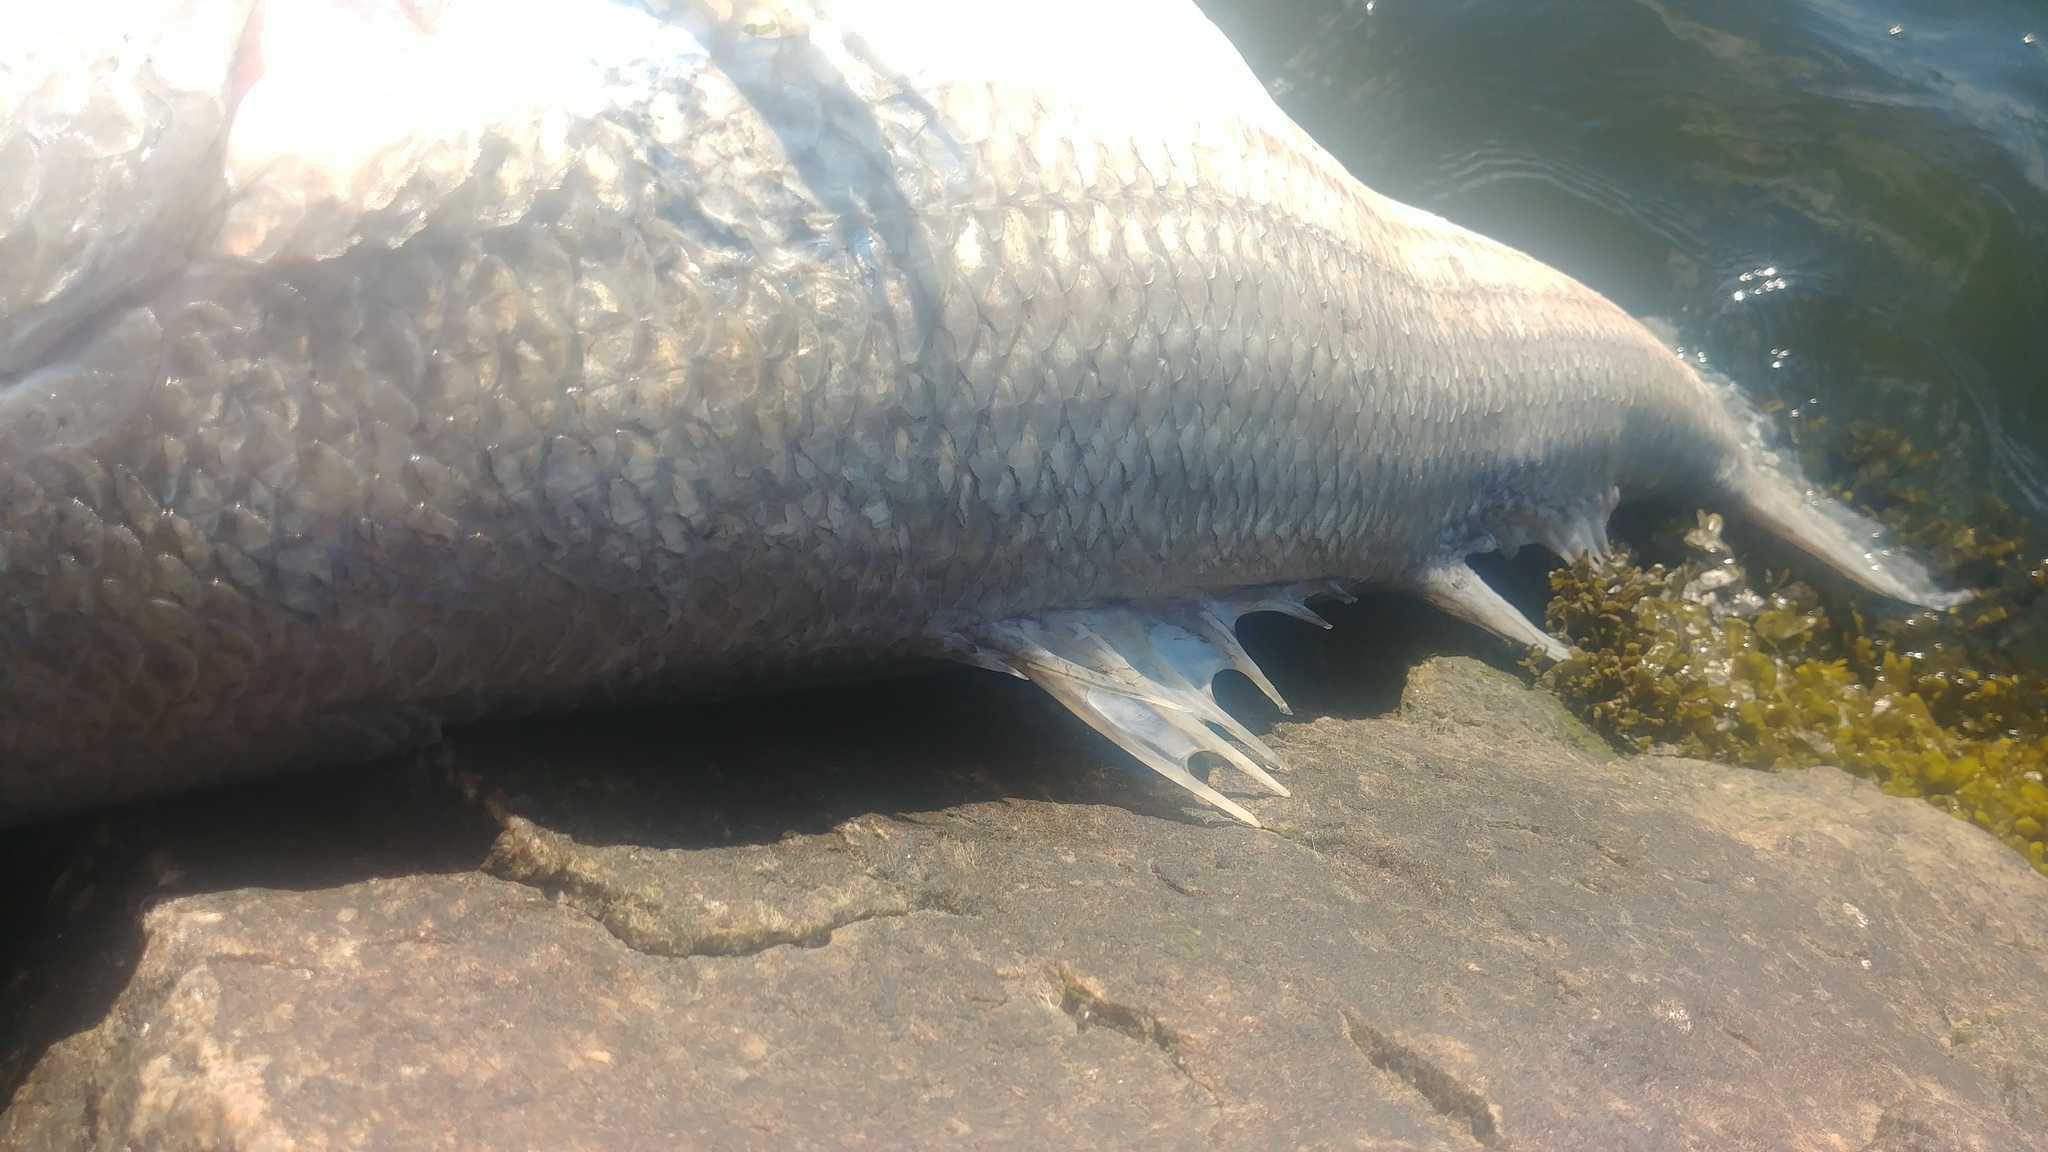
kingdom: Animalia
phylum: Chordata
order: Perciformes
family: Moronidae
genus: Morone
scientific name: Morone saxatilis
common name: Striped bass
